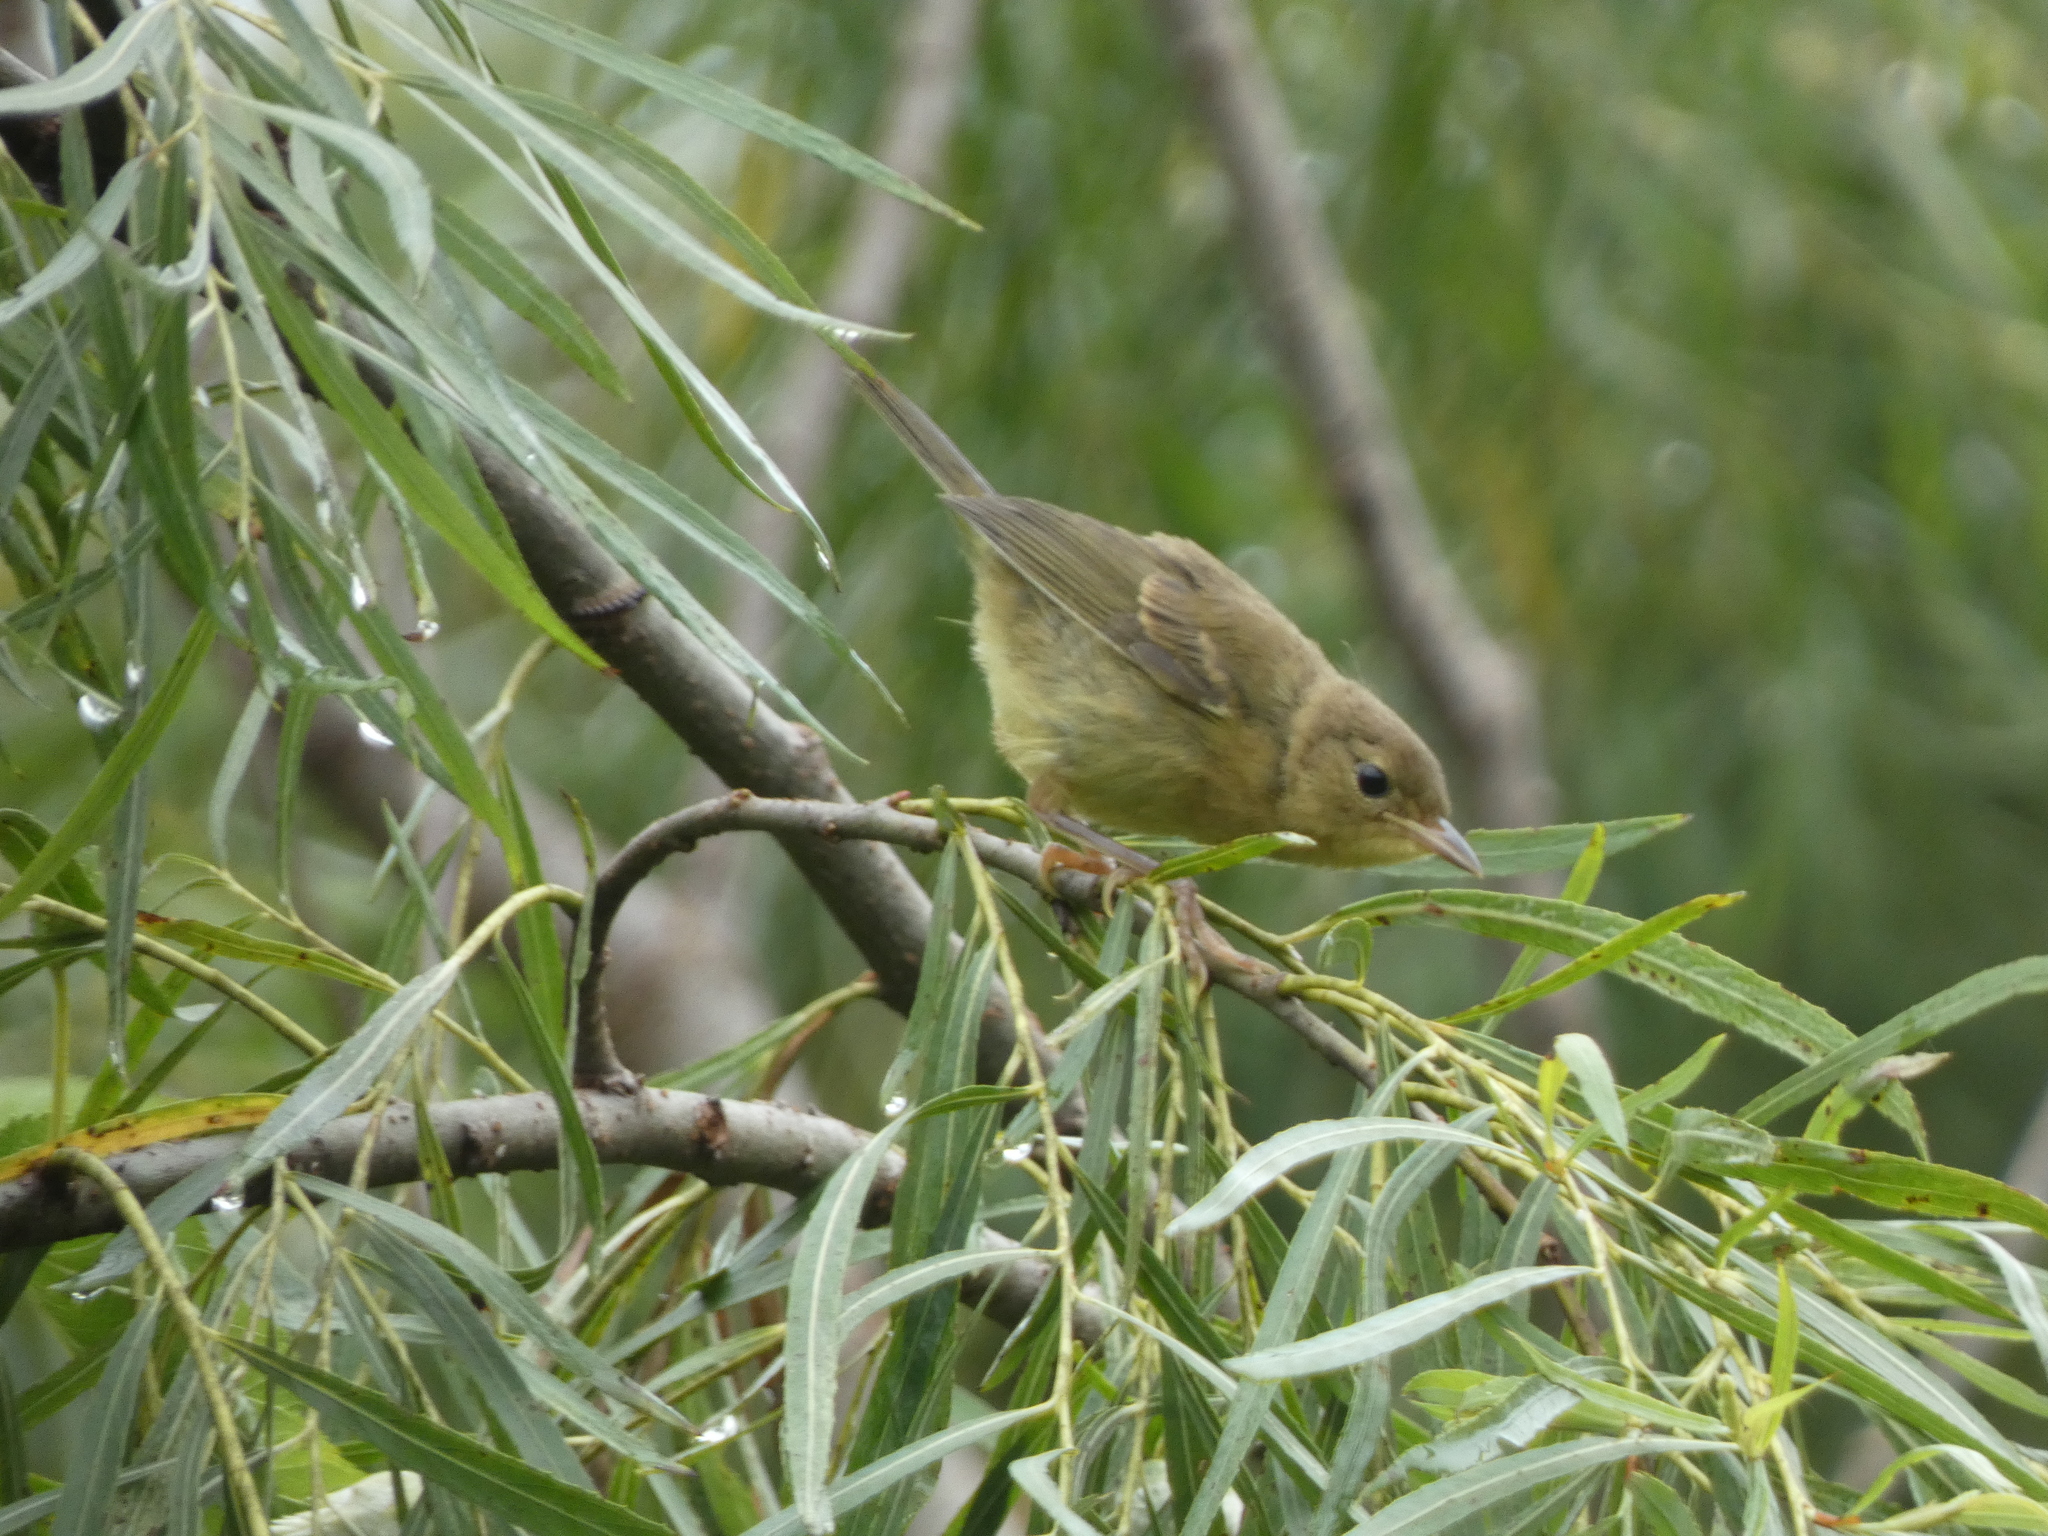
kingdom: Animalia
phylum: Chordata
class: Aves
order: Passeriformes
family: Parulidae
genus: Geothlypis
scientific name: Geothlypis trichas
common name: Common yellowthroat
